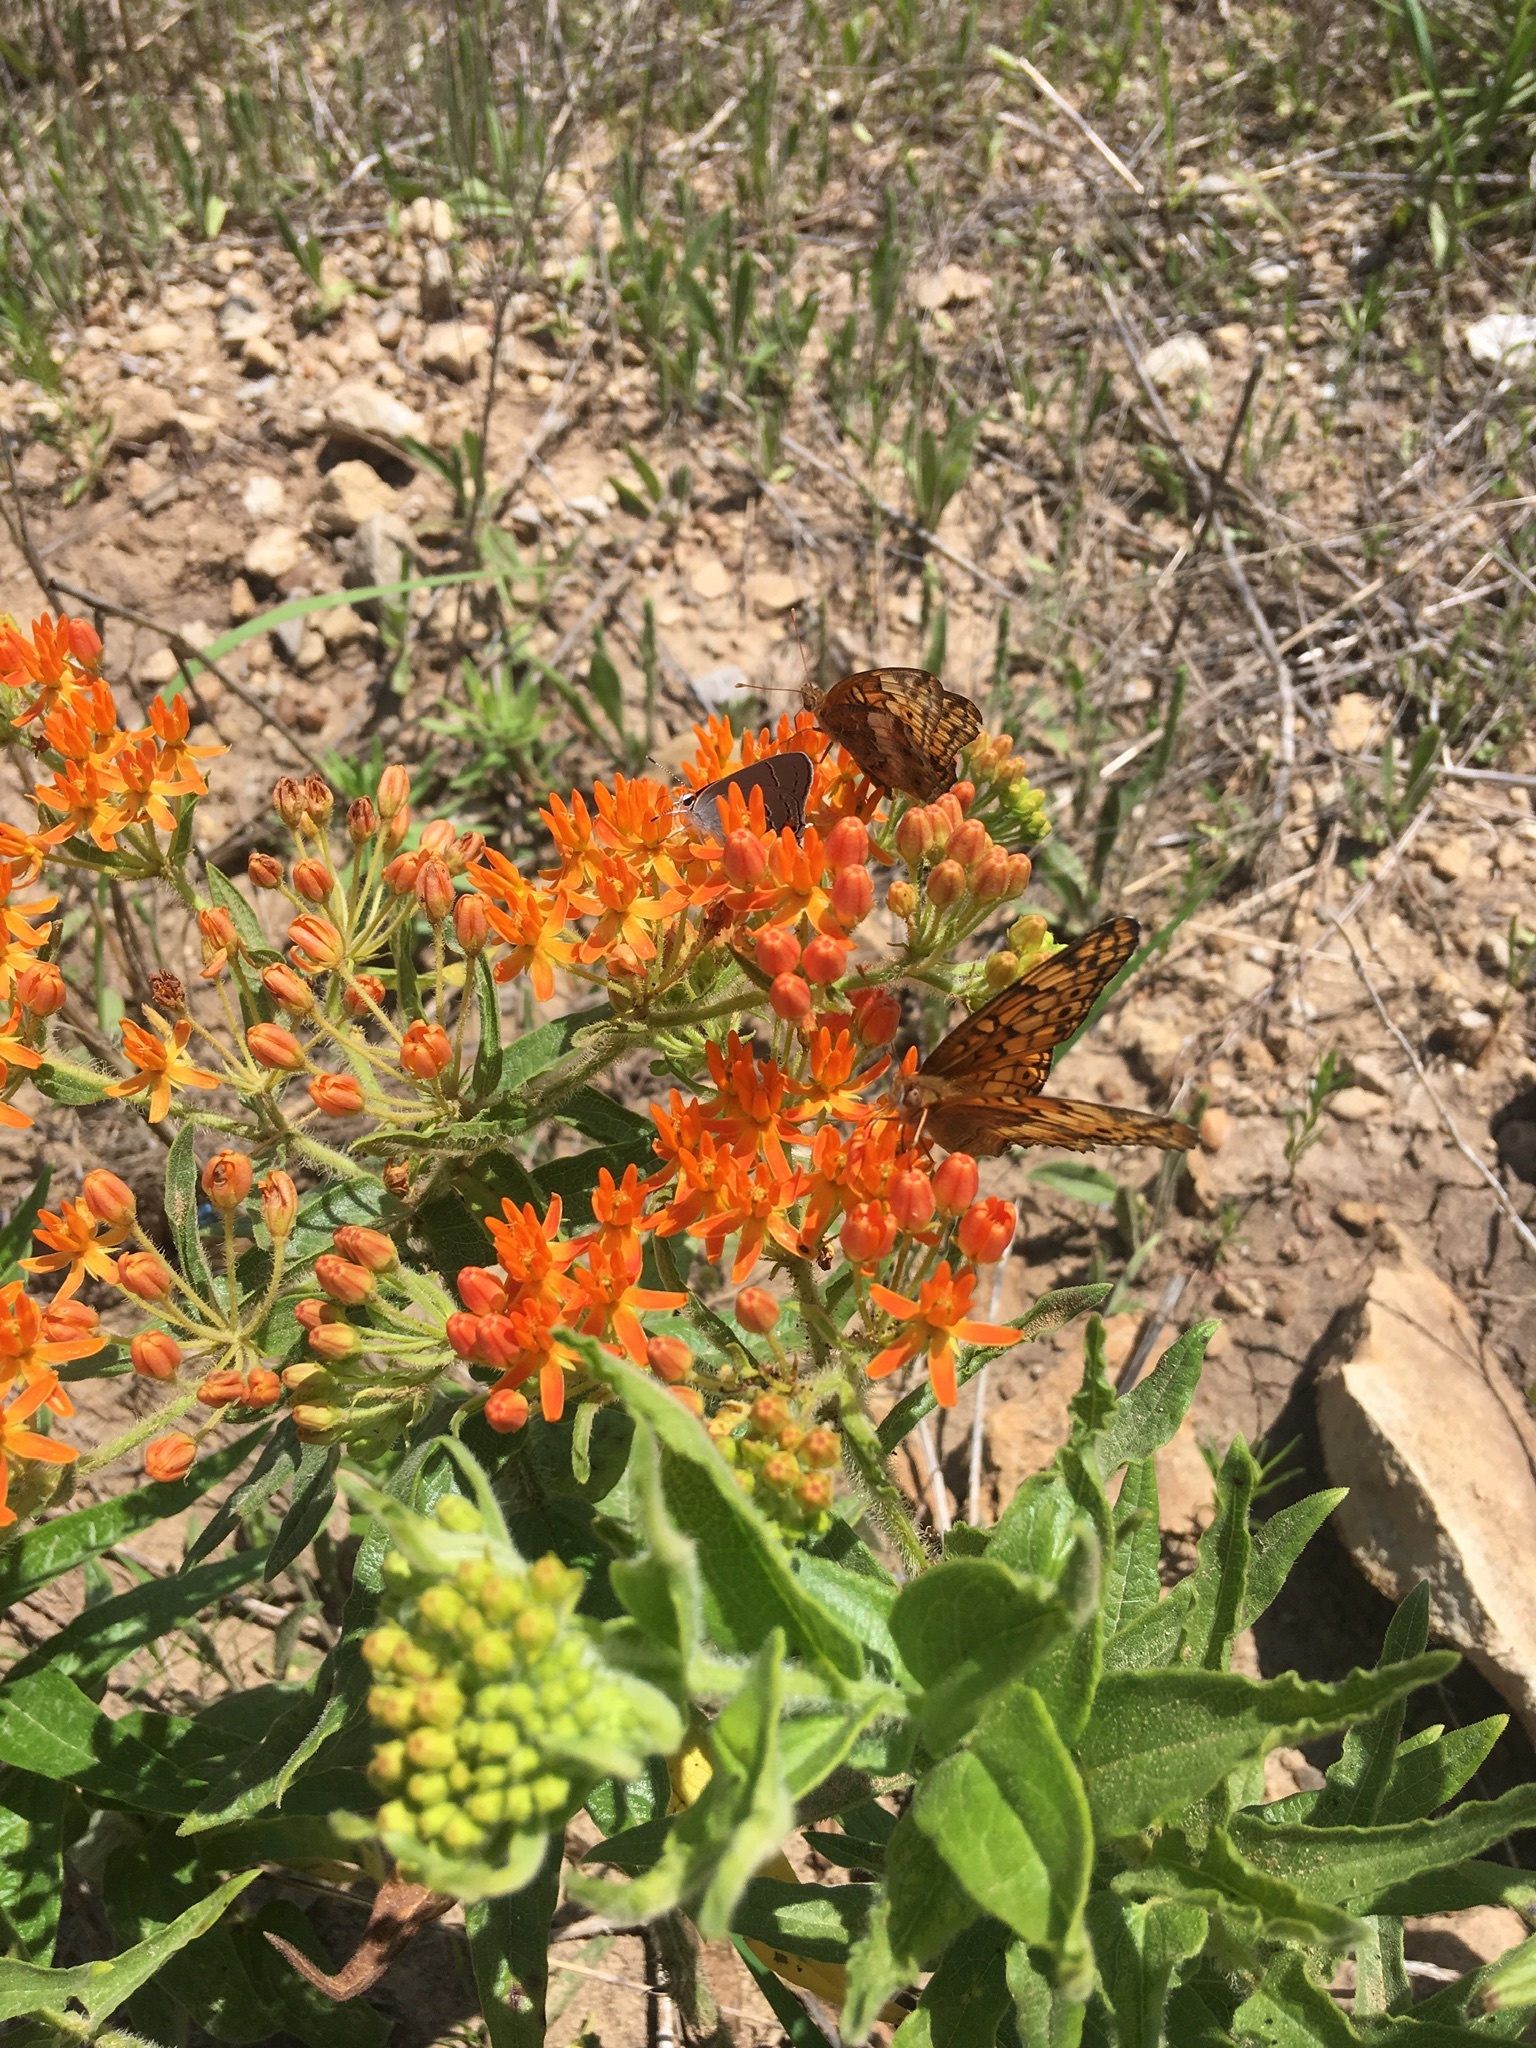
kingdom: Animalia
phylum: Arthropoda
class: Insecta
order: Lepidoptera
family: Nymphalidae
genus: Euptoieta
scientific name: Euptoieta claudia
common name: Variegated fritillary
